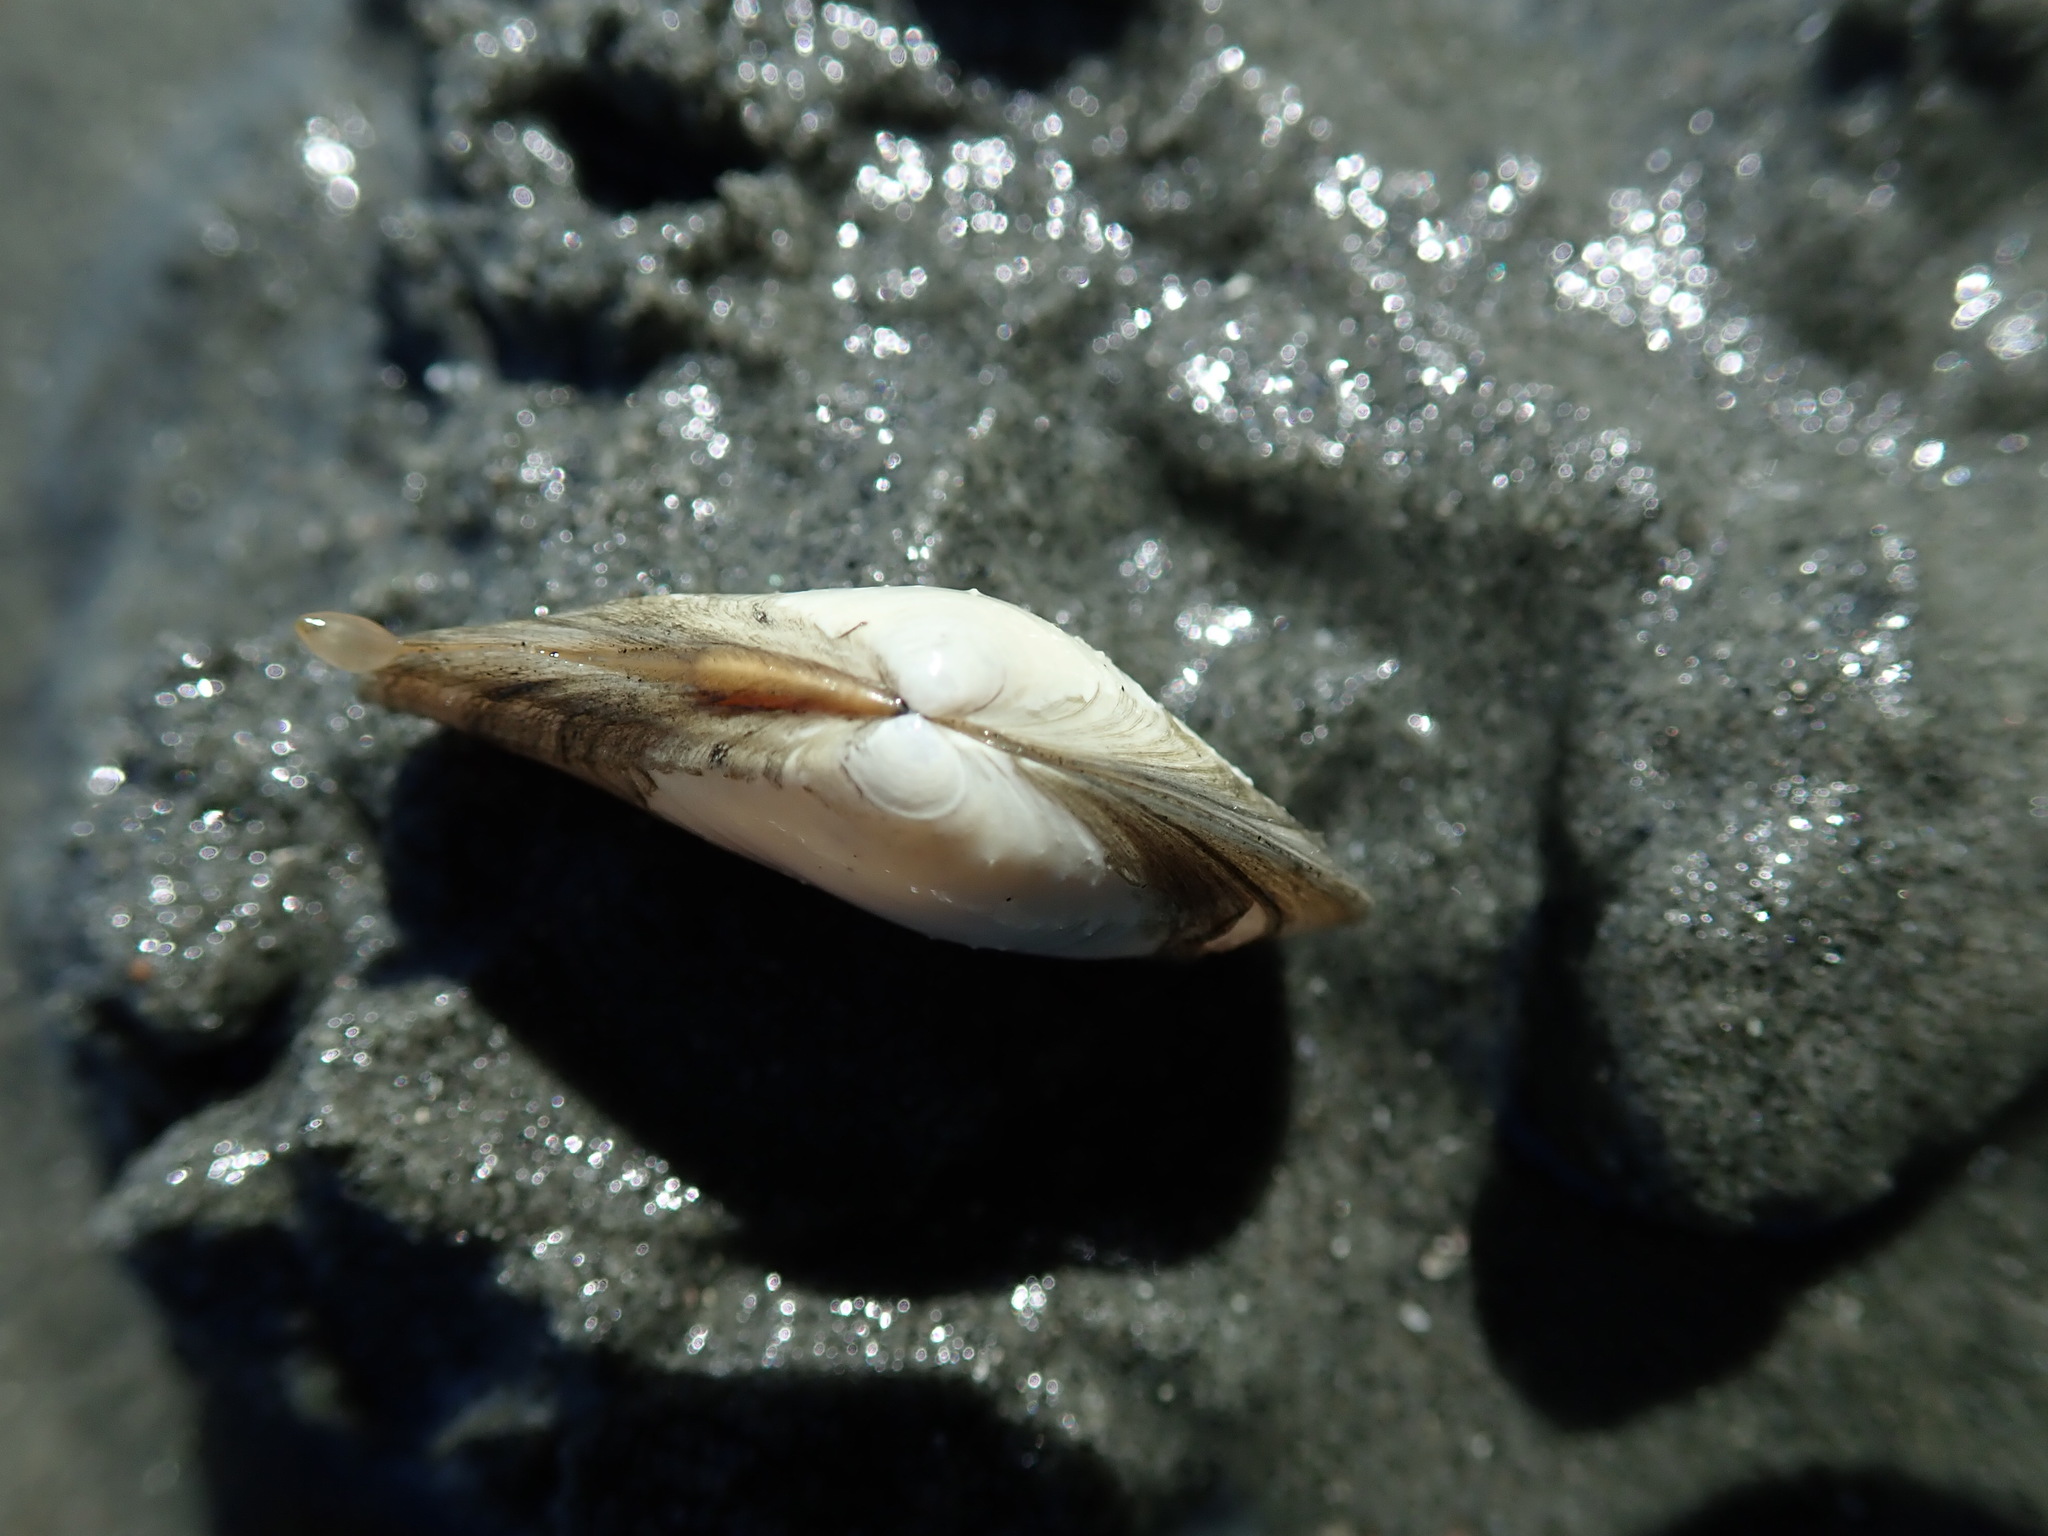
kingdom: Animalia
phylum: Mollusca
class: Bivalvia
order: Cardiida
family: Tellinidae
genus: Macoma
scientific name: Macoma nasuta
